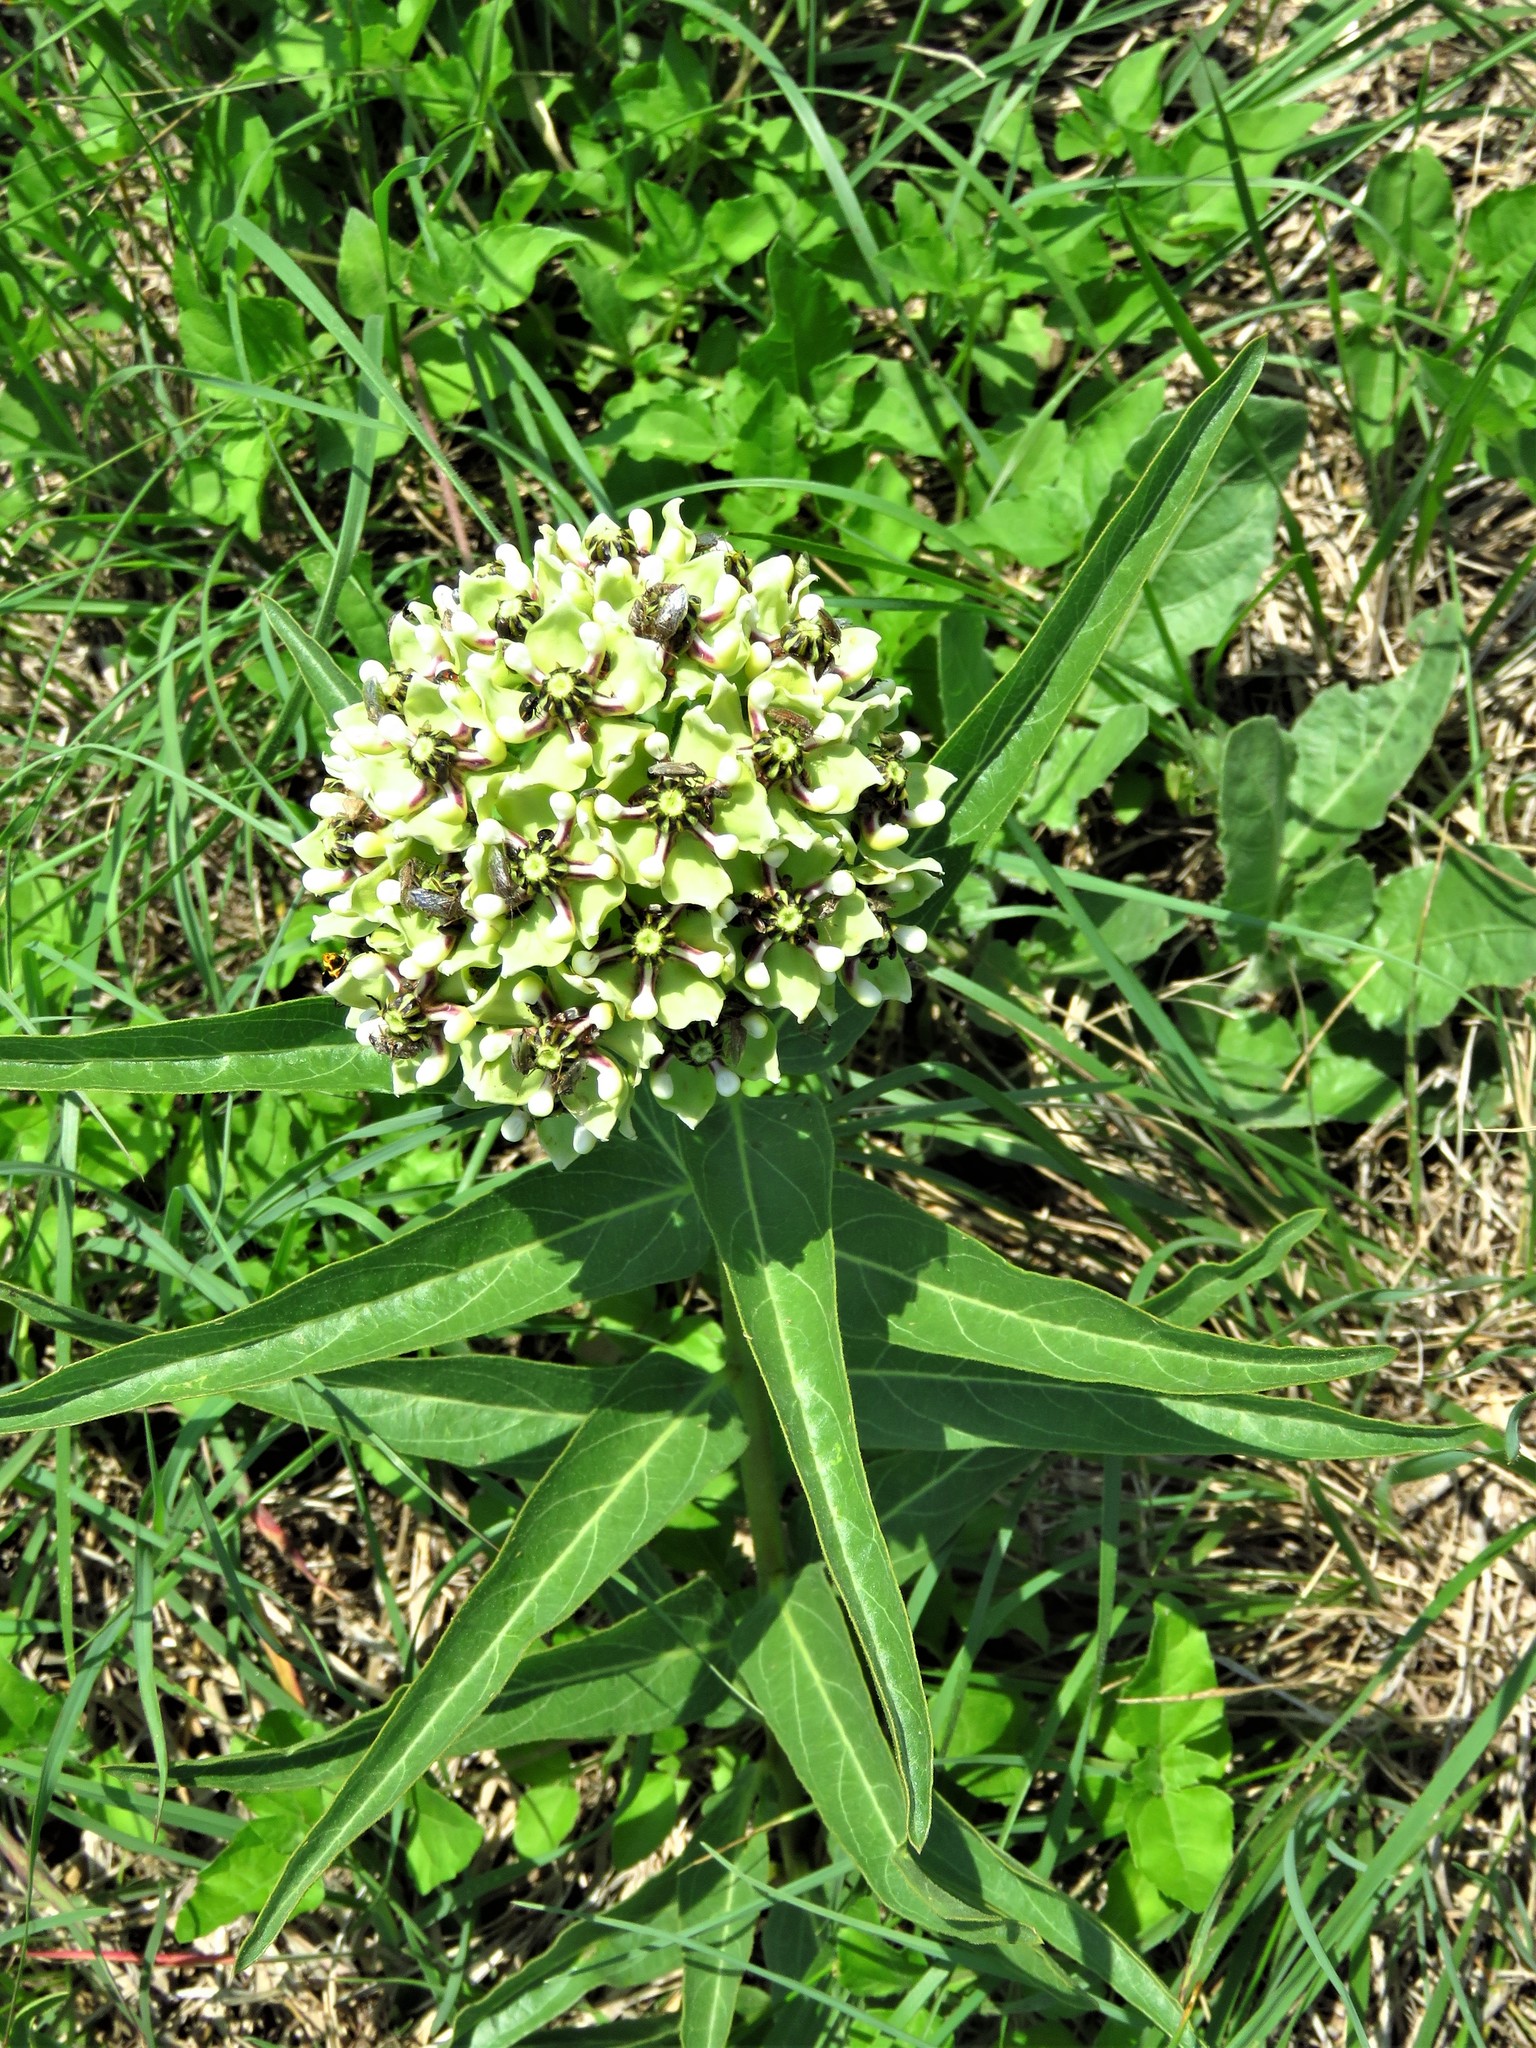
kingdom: Plantae
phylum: Tracheophyta
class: Magnoliopsida
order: Gentianales
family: Apocynaceae
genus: Asclepias
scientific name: Asclepias asperula
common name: Antelope horns
